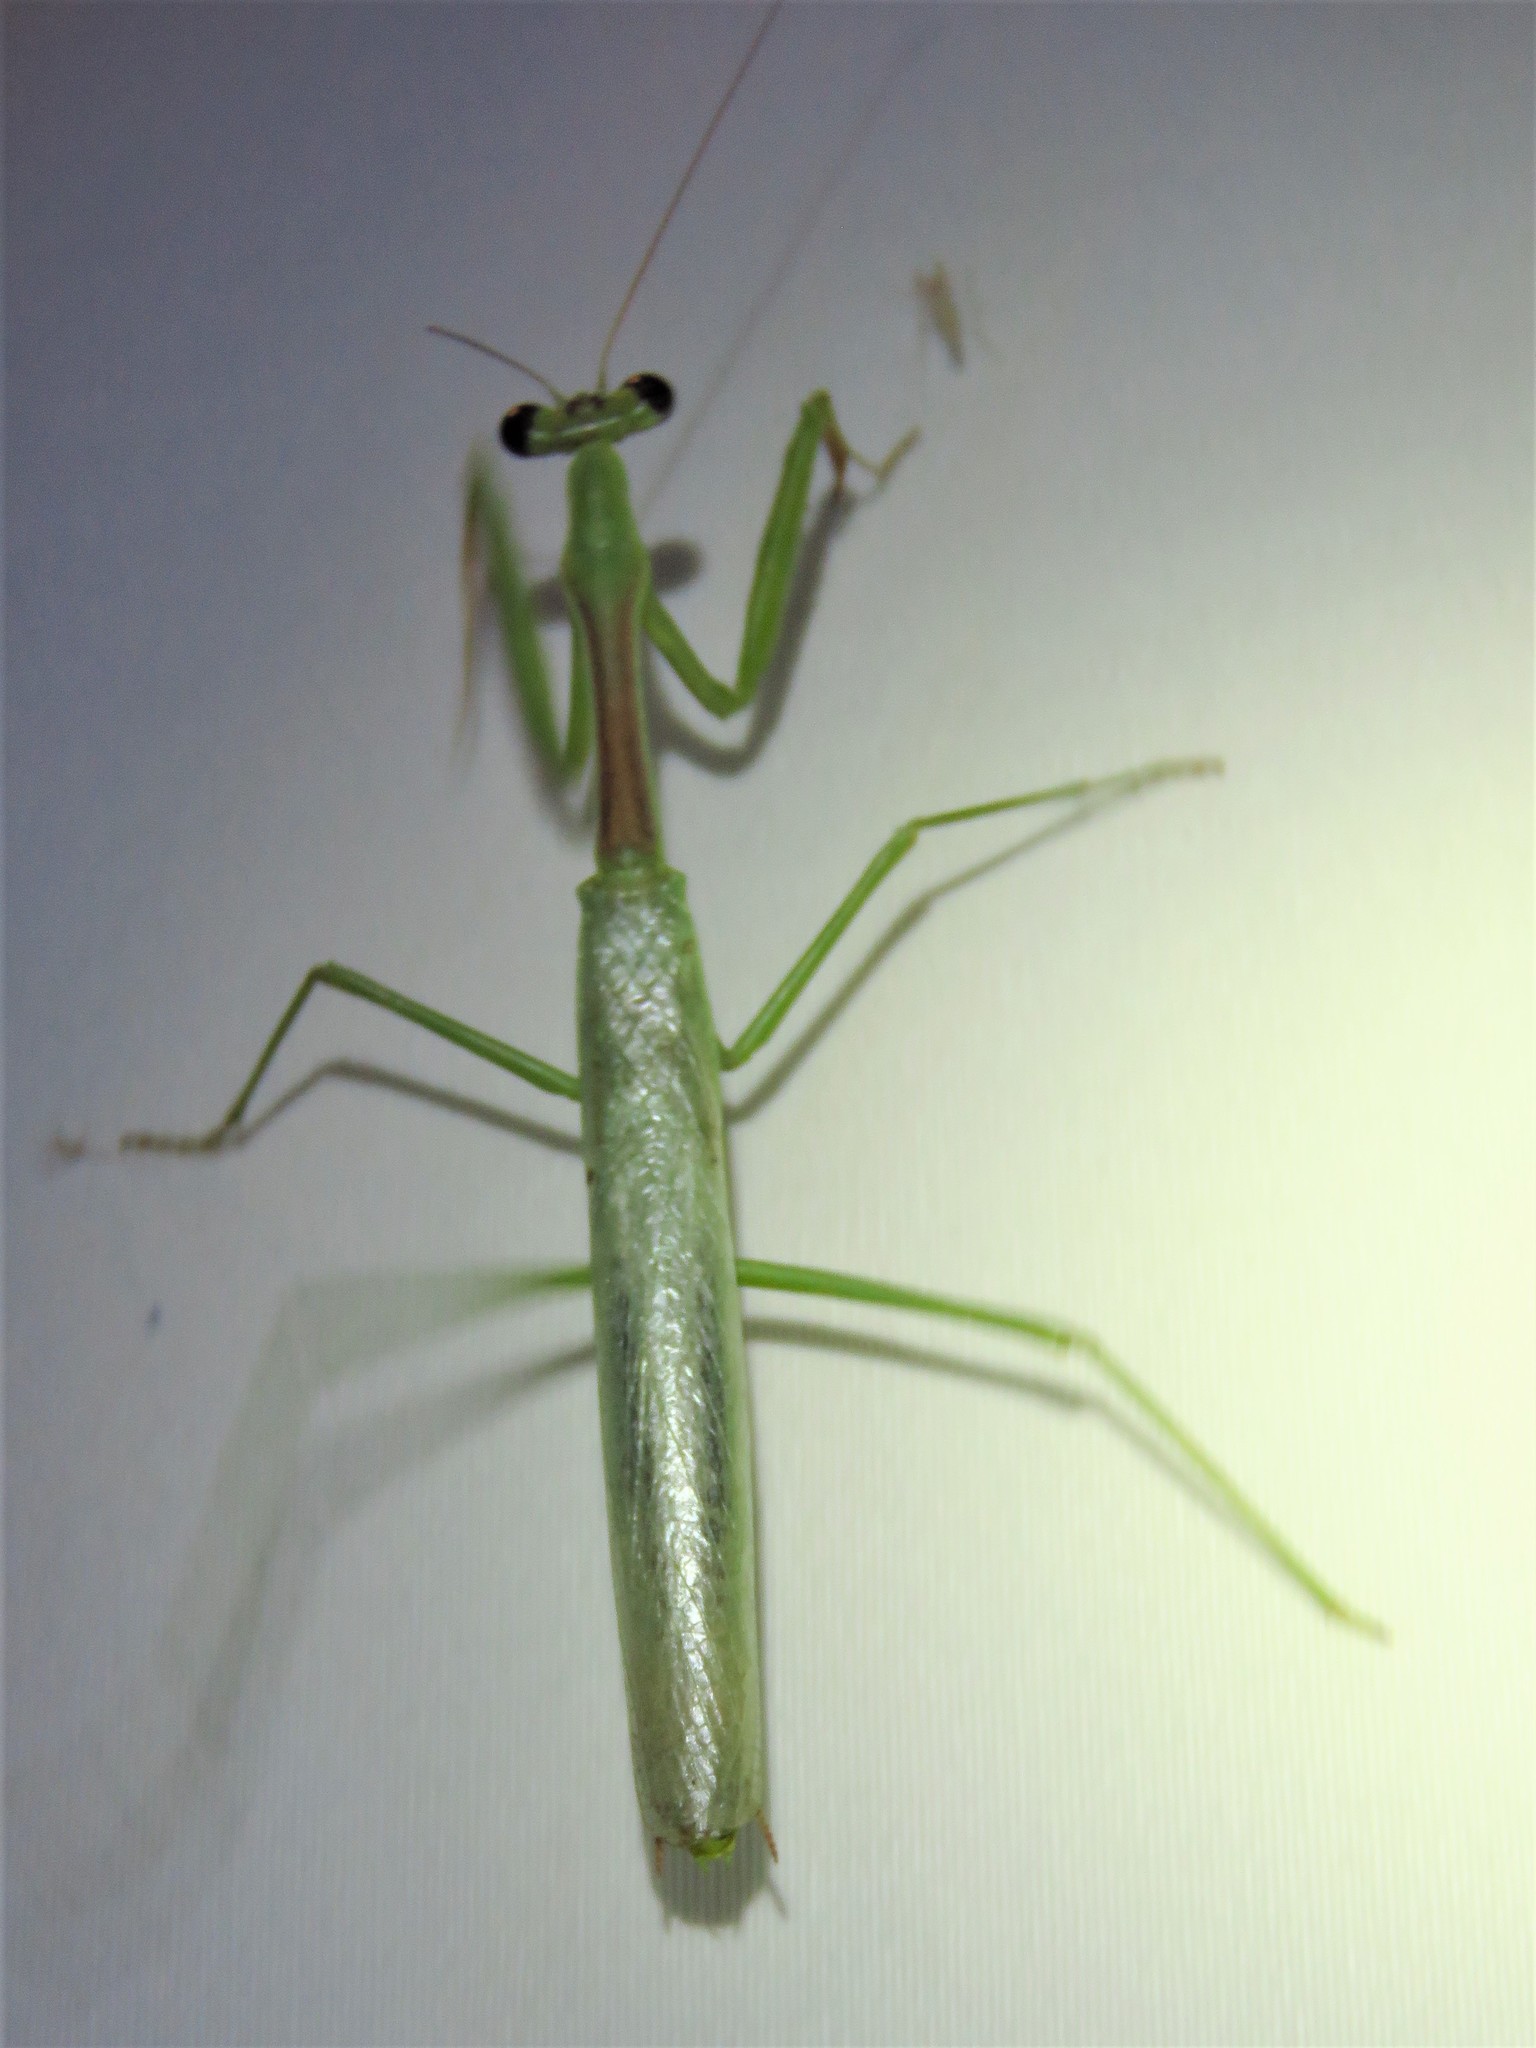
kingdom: Animalia
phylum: Arthropoda
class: Insecta
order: Mantodea
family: Mantidae
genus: Stagmomantis
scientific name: Stagmomantis limbata
